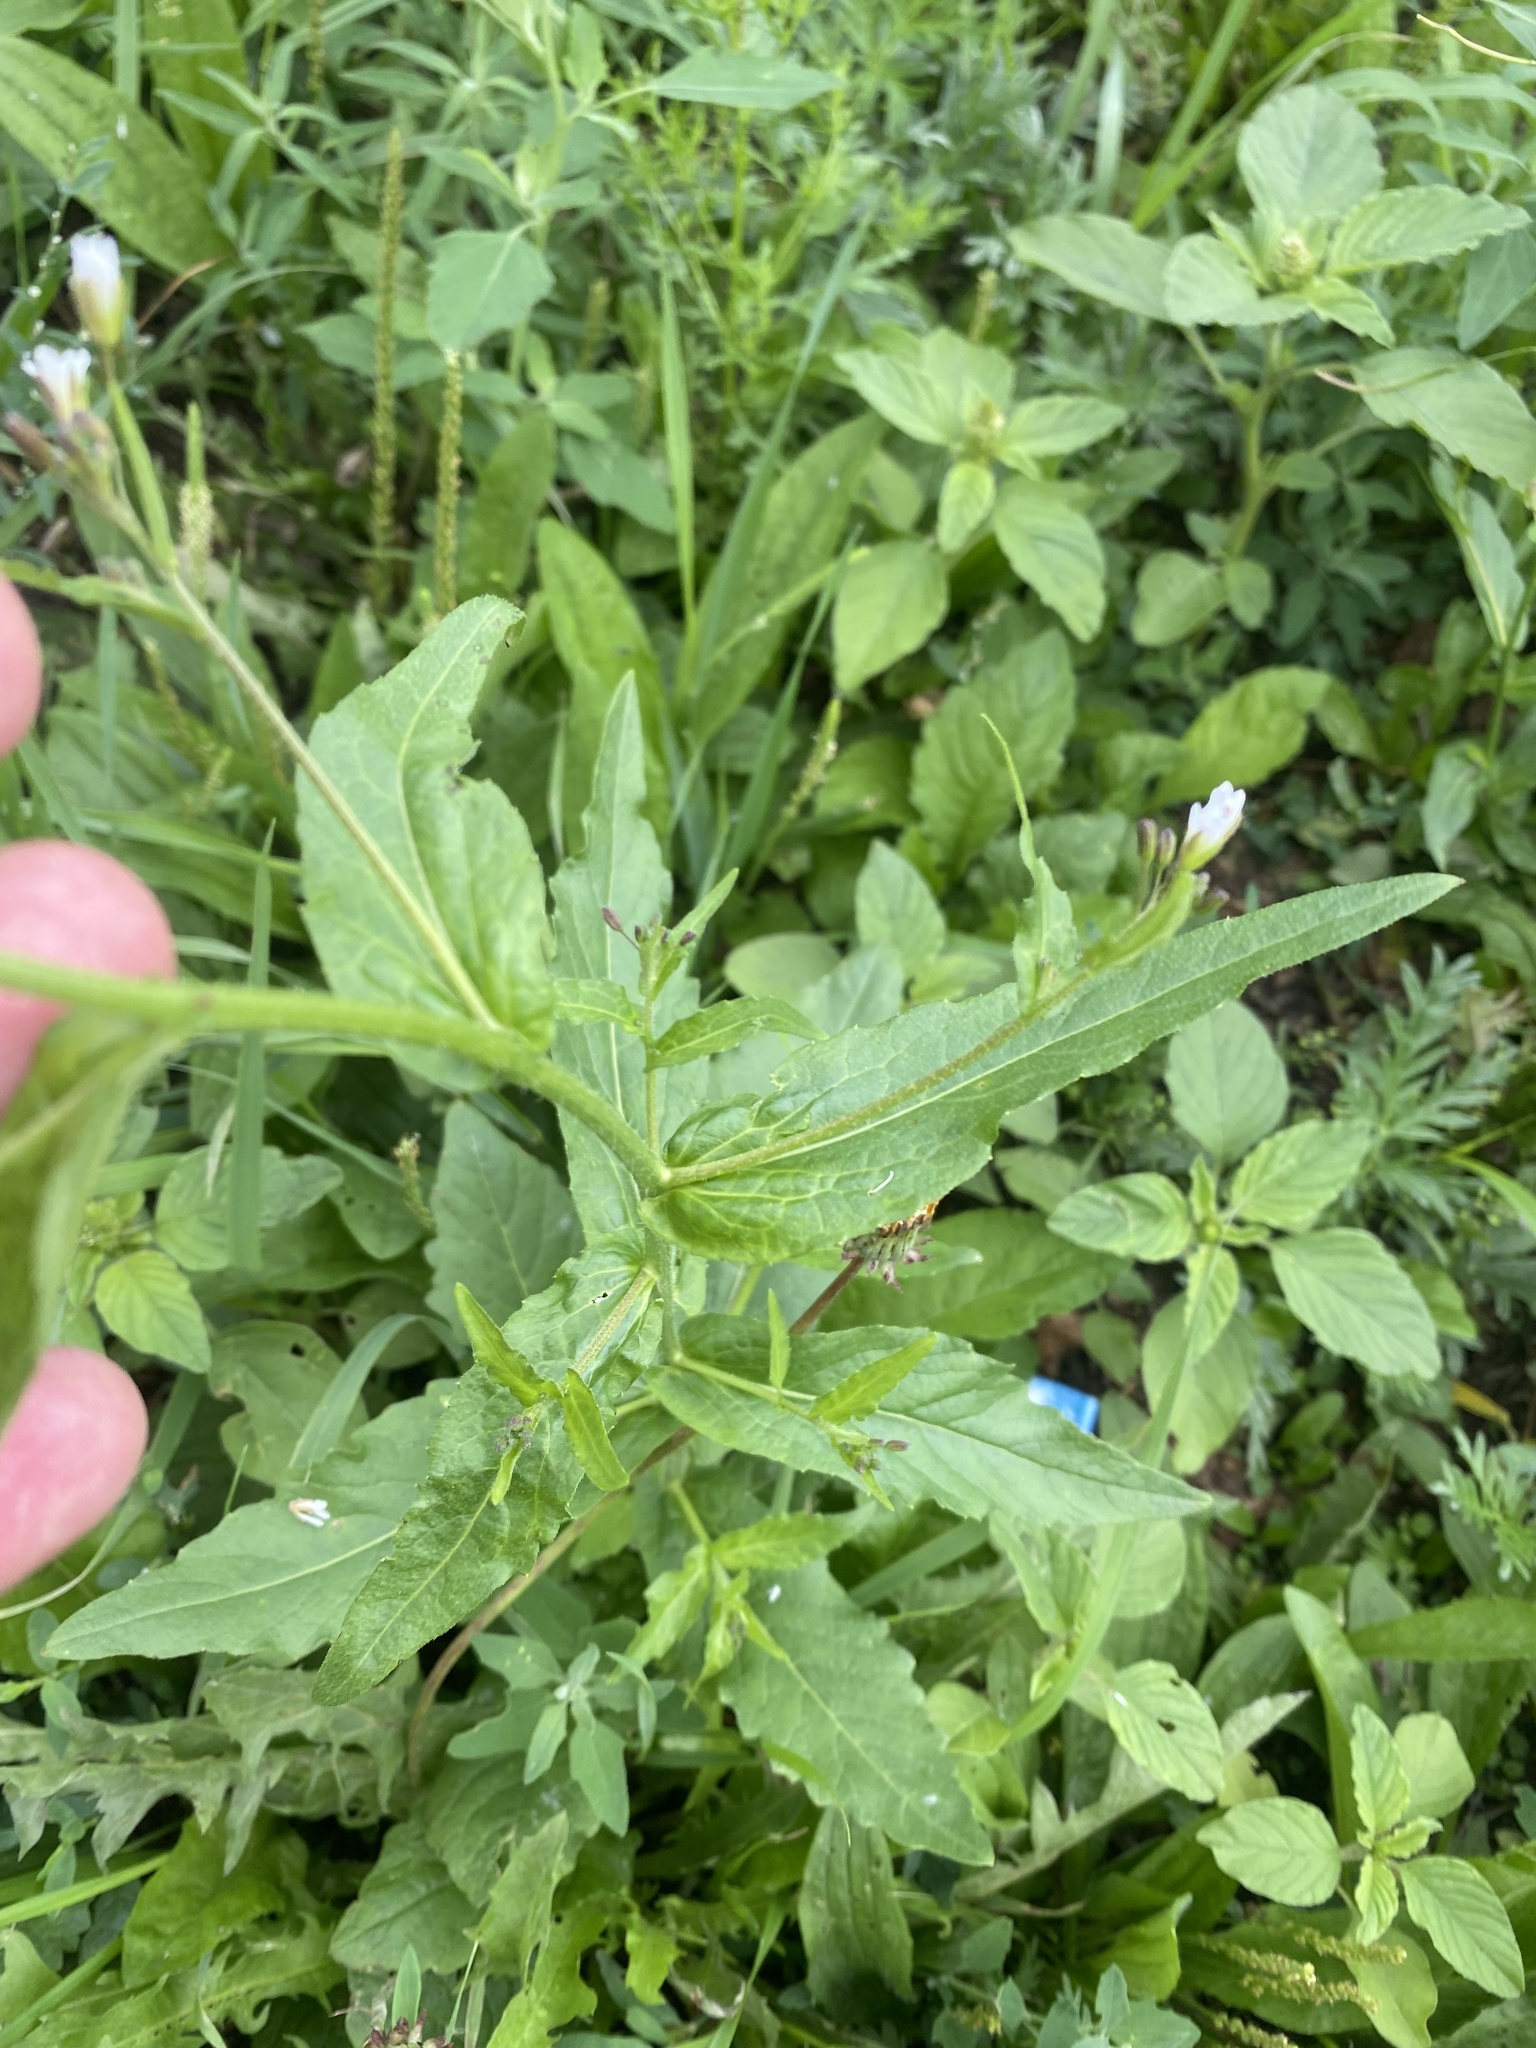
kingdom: Plantae
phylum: Tracheophyta
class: Magnoliopsida
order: Brassicales
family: Brassicaceae
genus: Catolobus
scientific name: Catolobus pendulus
